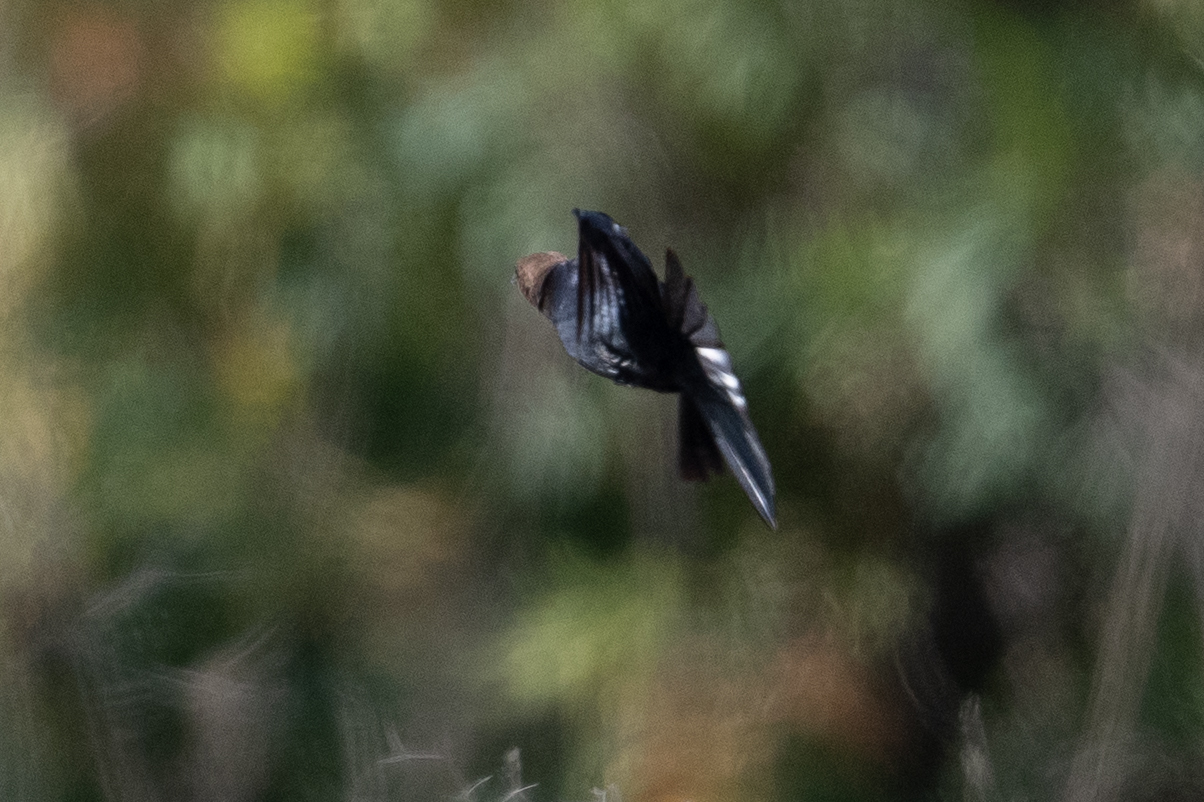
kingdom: Animalia
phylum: Chordata
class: Aves
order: Passeriformes
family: Icteridae
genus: Molothrus
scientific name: Molothrus ater
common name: Brown-headed cowbird
